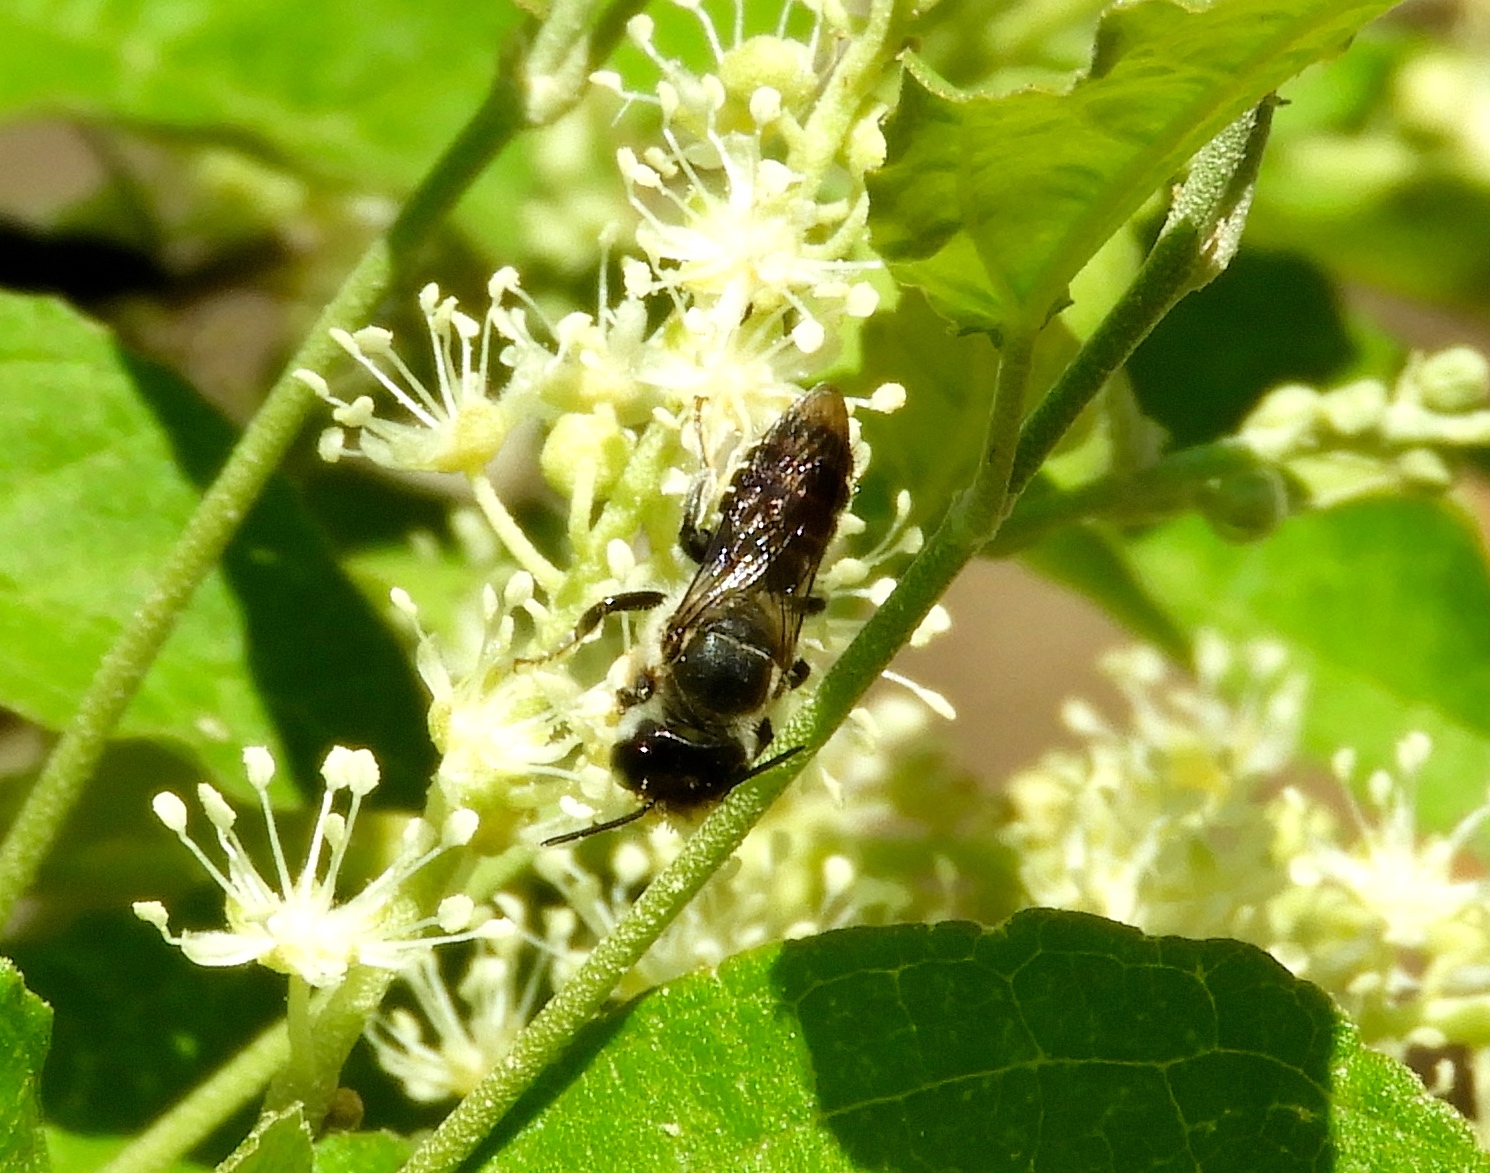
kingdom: Animalia
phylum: Arthropoda
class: Insecta
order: Hymenoptera
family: Megachilidae
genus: Megachile
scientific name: Megachile
